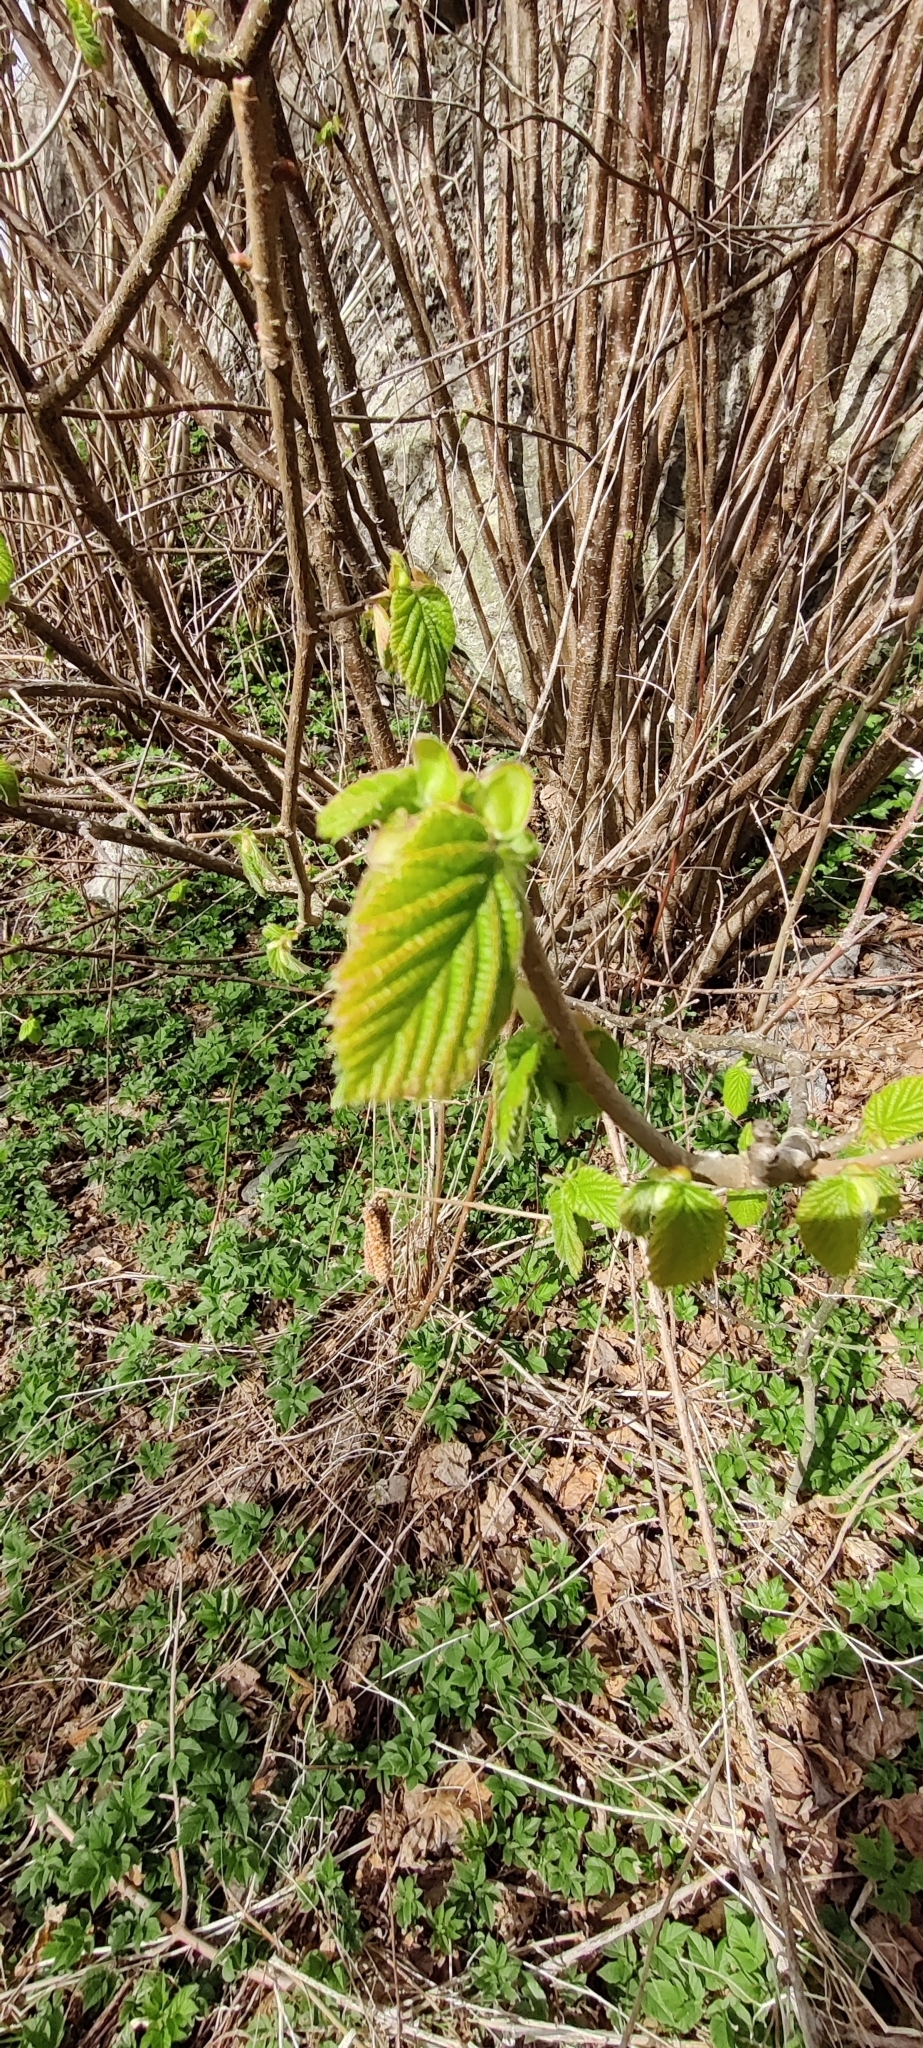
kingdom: Plantae
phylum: Tracheophyta
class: Magnoliopsida
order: Fagales
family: Betulaceae
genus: Corylus
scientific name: Corylus avellana
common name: European hazel
